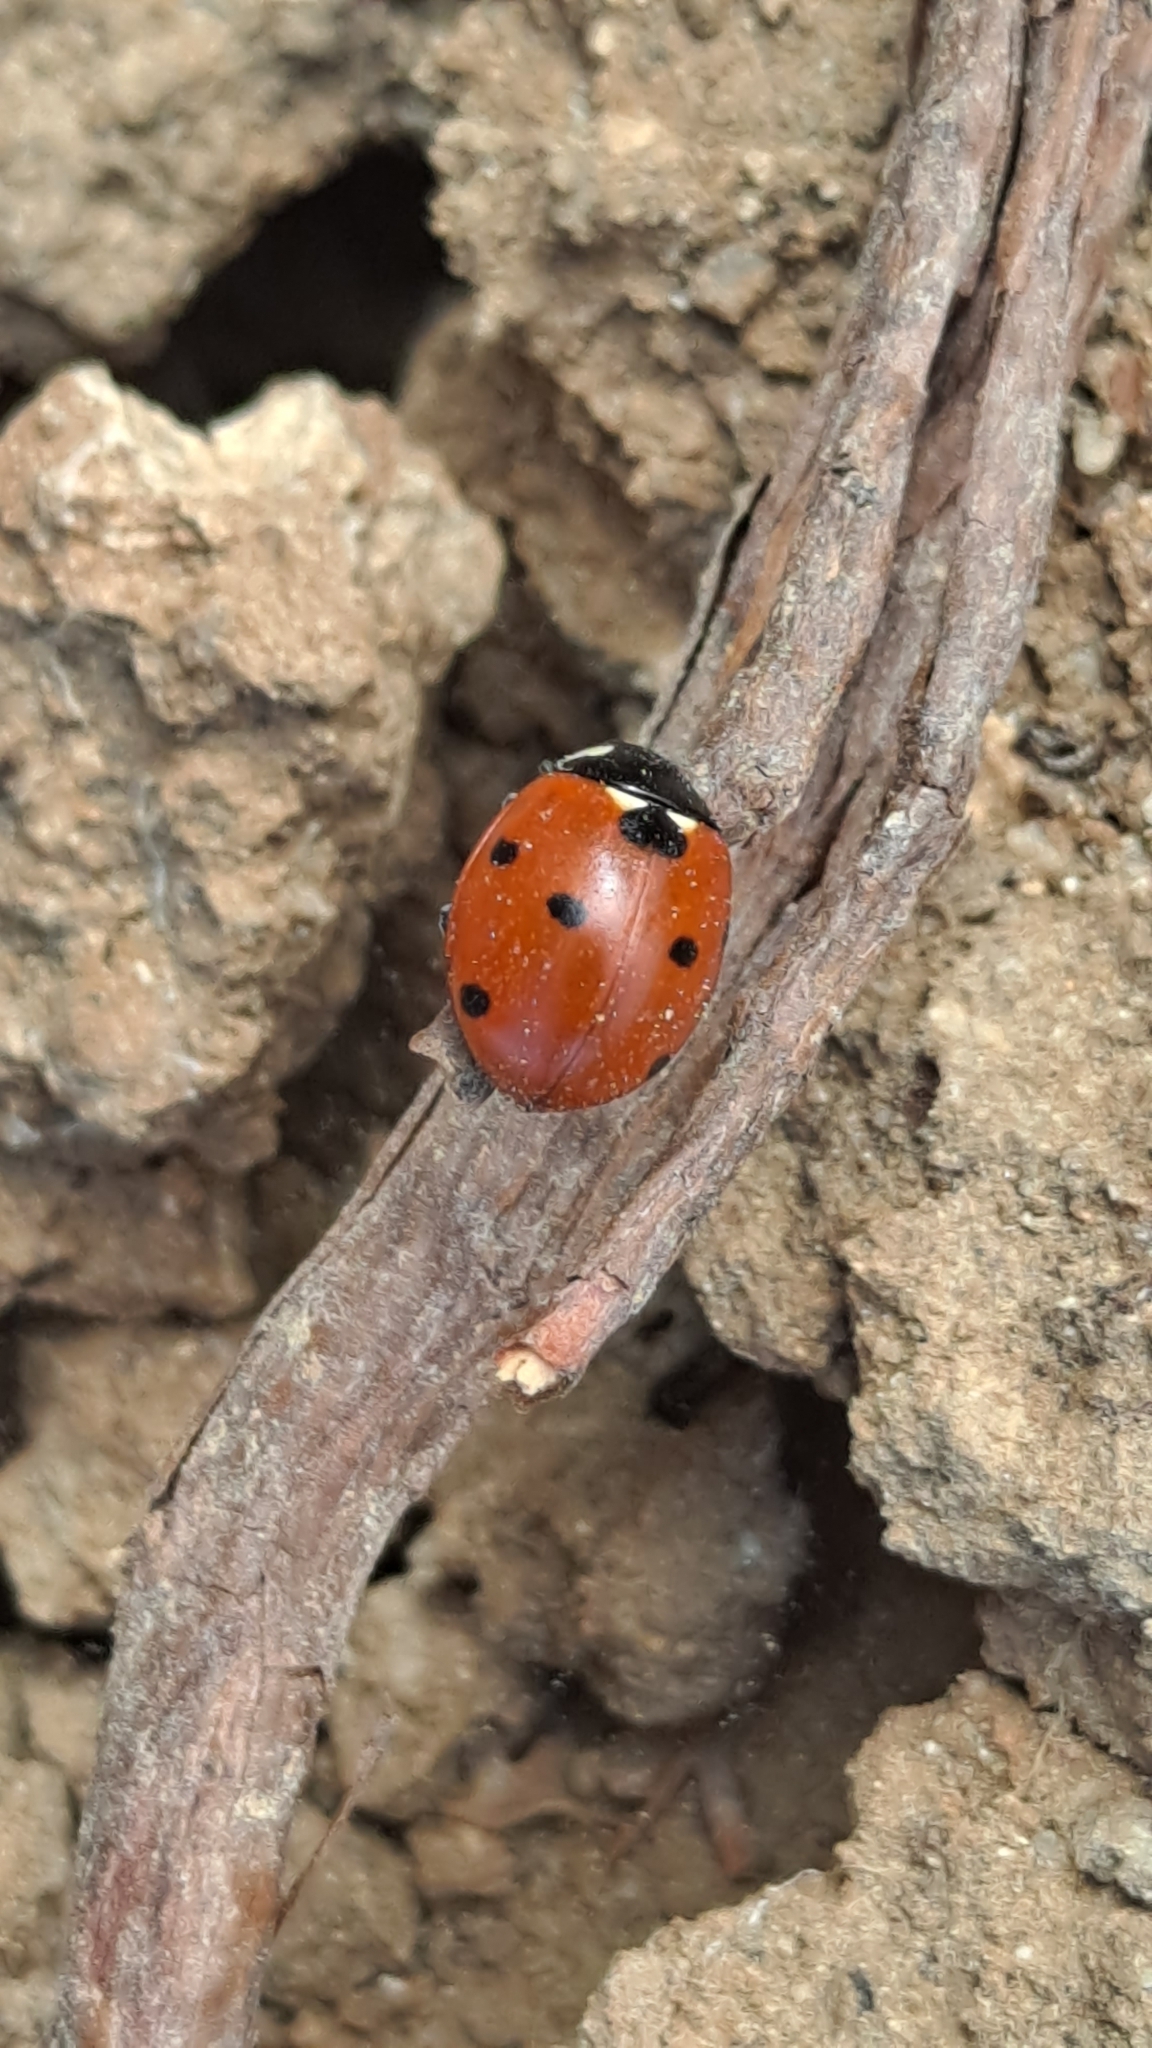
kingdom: Animalia
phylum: Arthropoda
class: Insecta
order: Coleoptera
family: Coccinellidae
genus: Coccinella
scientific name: Coccinella septempunctata
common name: Sevenspotted lady beetle
